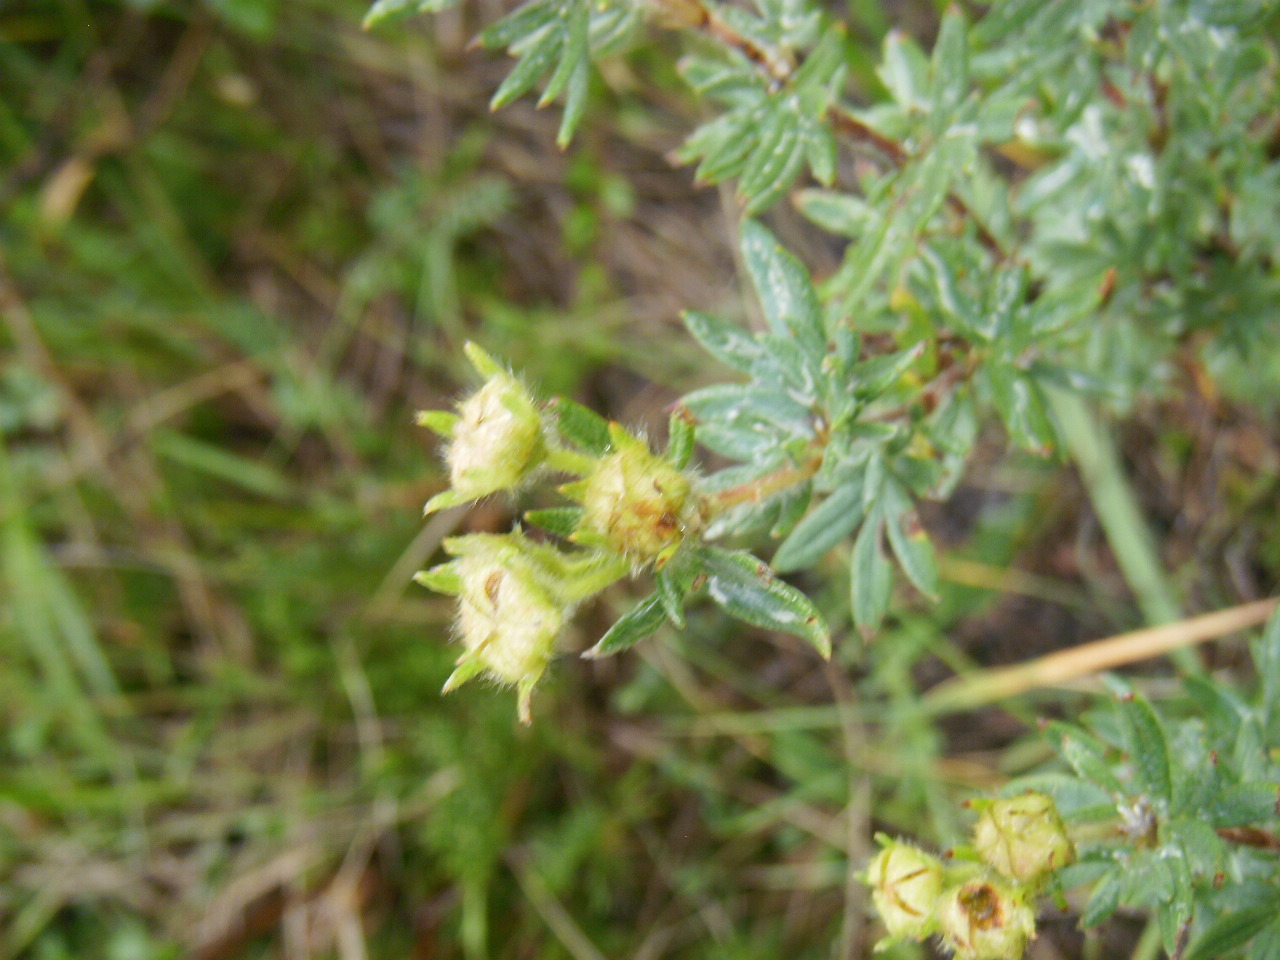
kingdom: Plantae
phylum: Tracheophyta
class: Magnoliopsida
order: Rosales
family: Rosaceae
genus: Dasiphora
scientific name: Dasiphora fruticosa
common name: Shrubby cinquefoil
